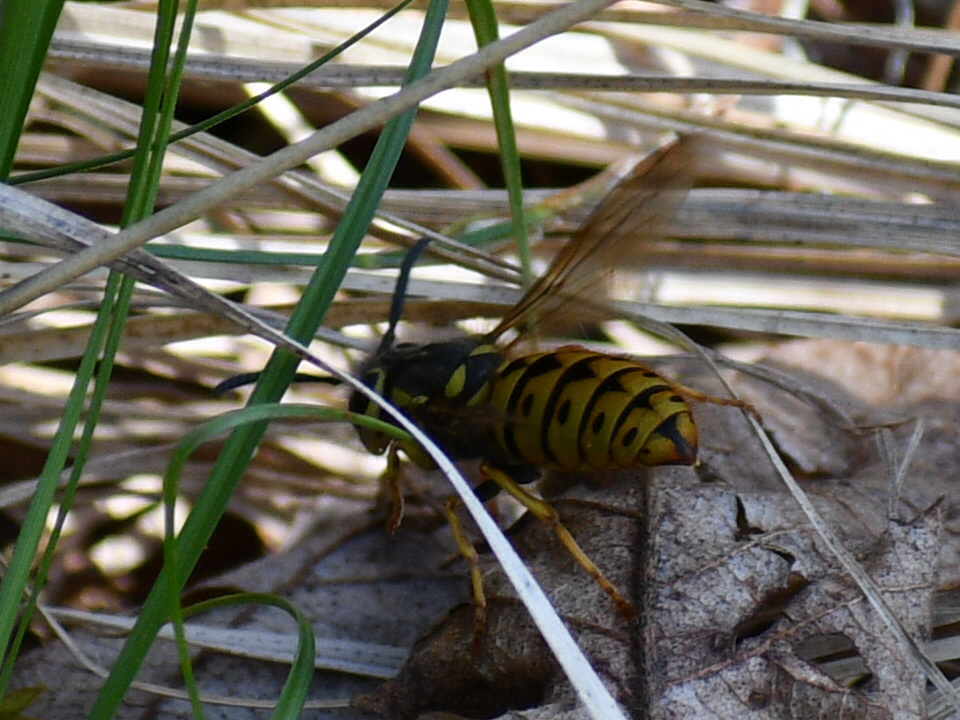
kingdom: Animalia
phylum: Arthropoda
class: Insecta
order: Hymenoptera
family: Vespidae
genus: Vespula
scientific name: Vespula pensylvanica
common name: Western yellowjacket
